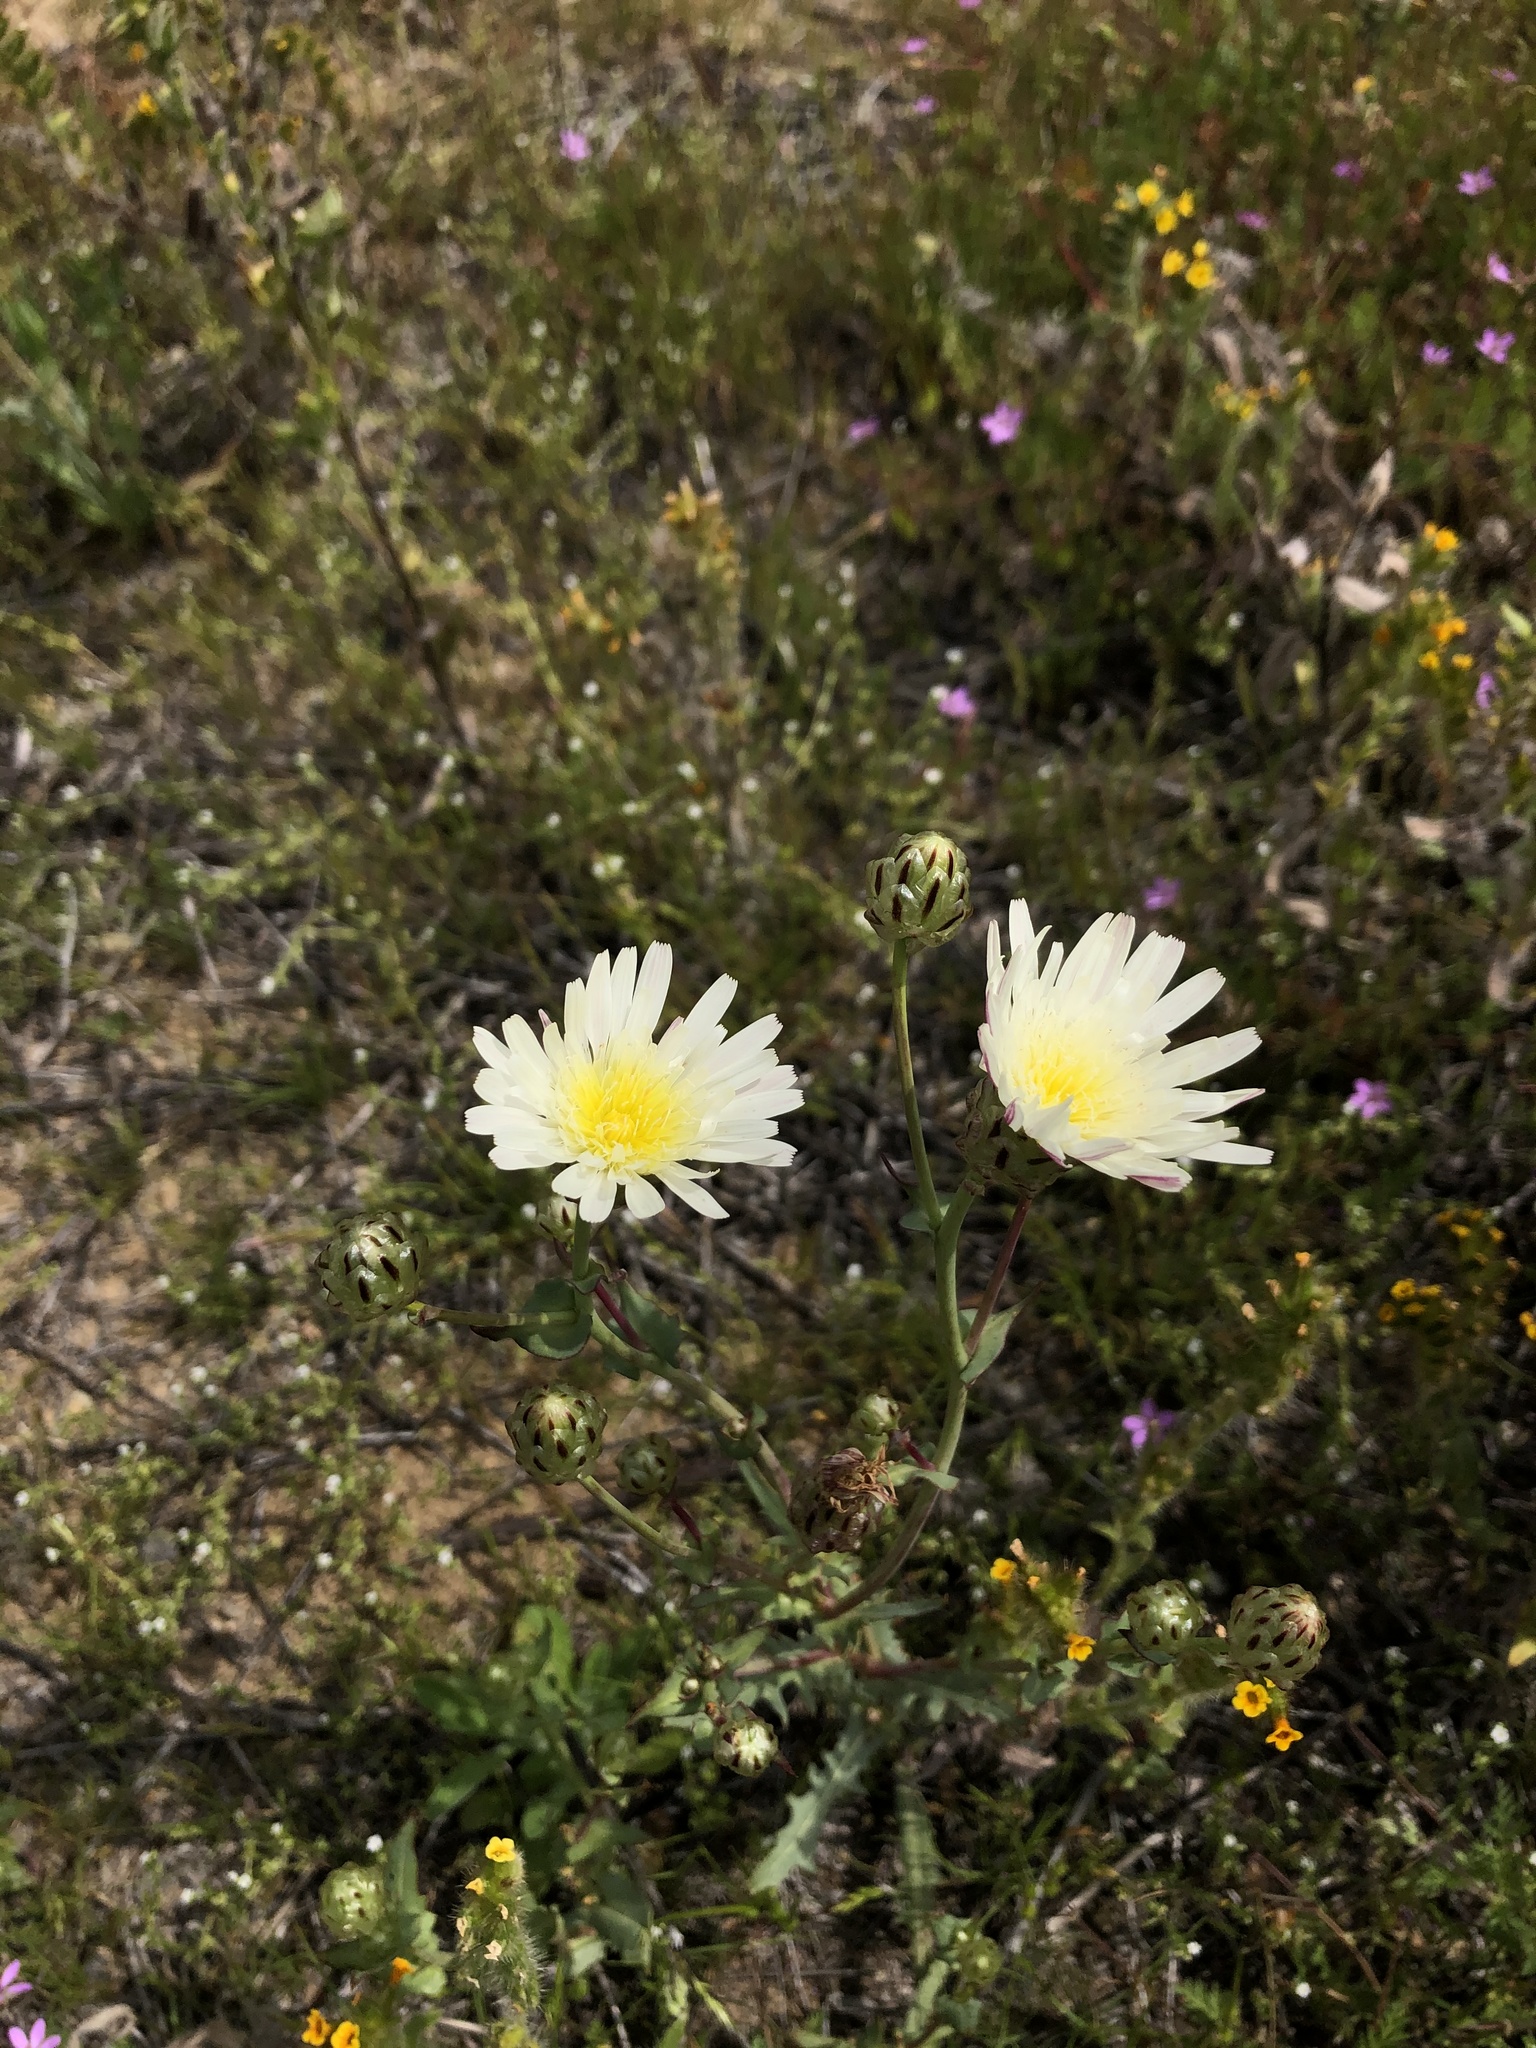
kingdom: Plantae
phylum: Tracheophyta
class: Magnoliopsida
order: Asterales
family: Asteraceae
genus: Malacothrix
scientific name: Malacothrix coulteri
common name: Snake's-head
